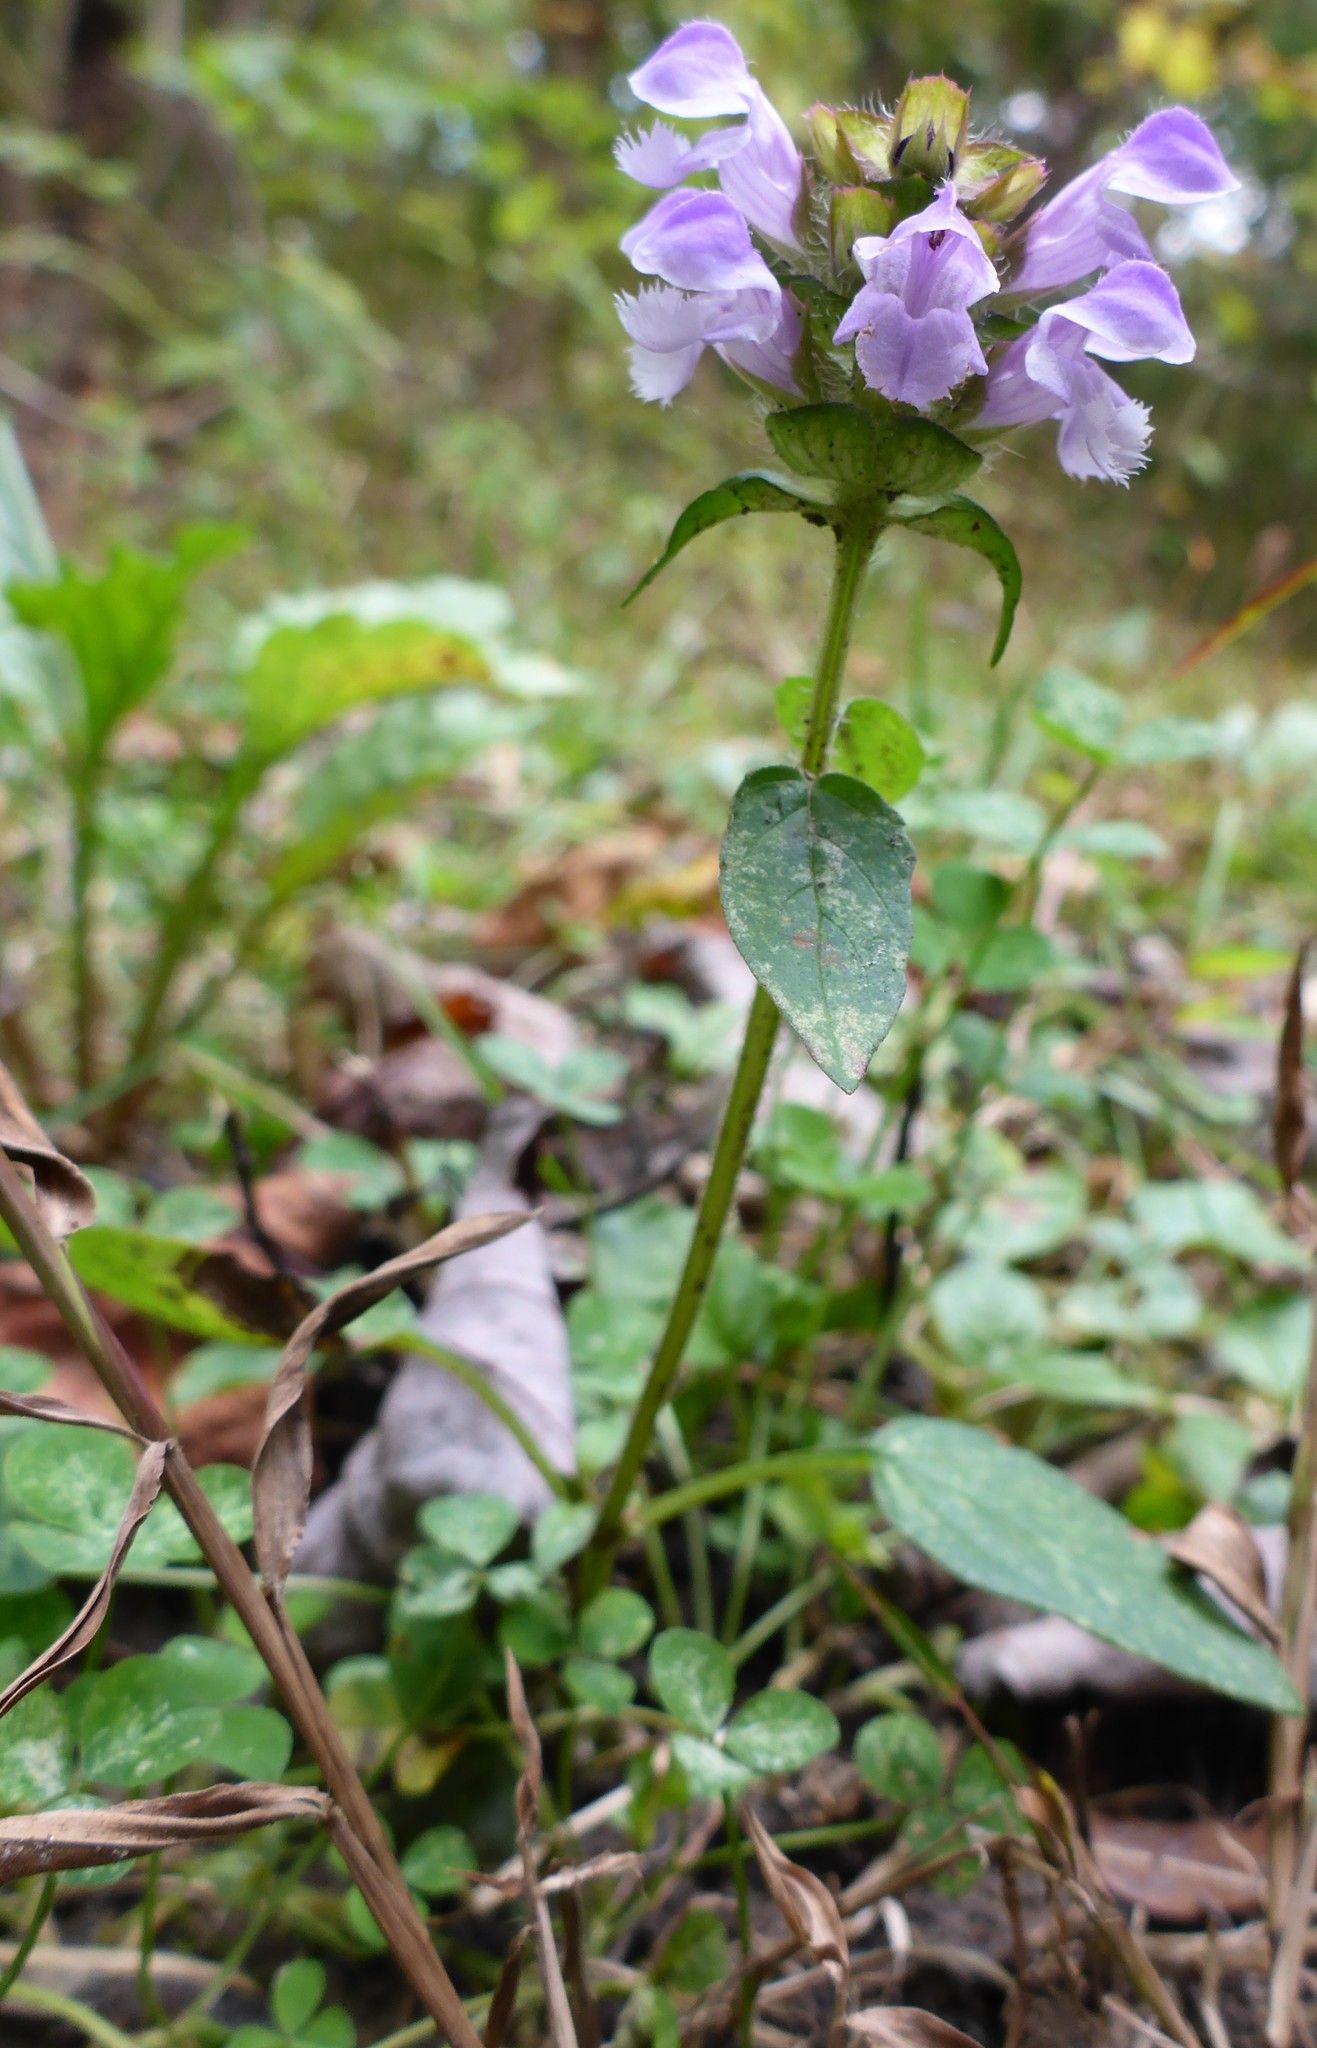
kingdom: Plantae
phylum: Tracheophyta
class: Magnoliopsida
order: Lamiales
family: Lamiaceae
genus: Prunella
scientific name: Prunella vulgaris
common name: Heal-all
